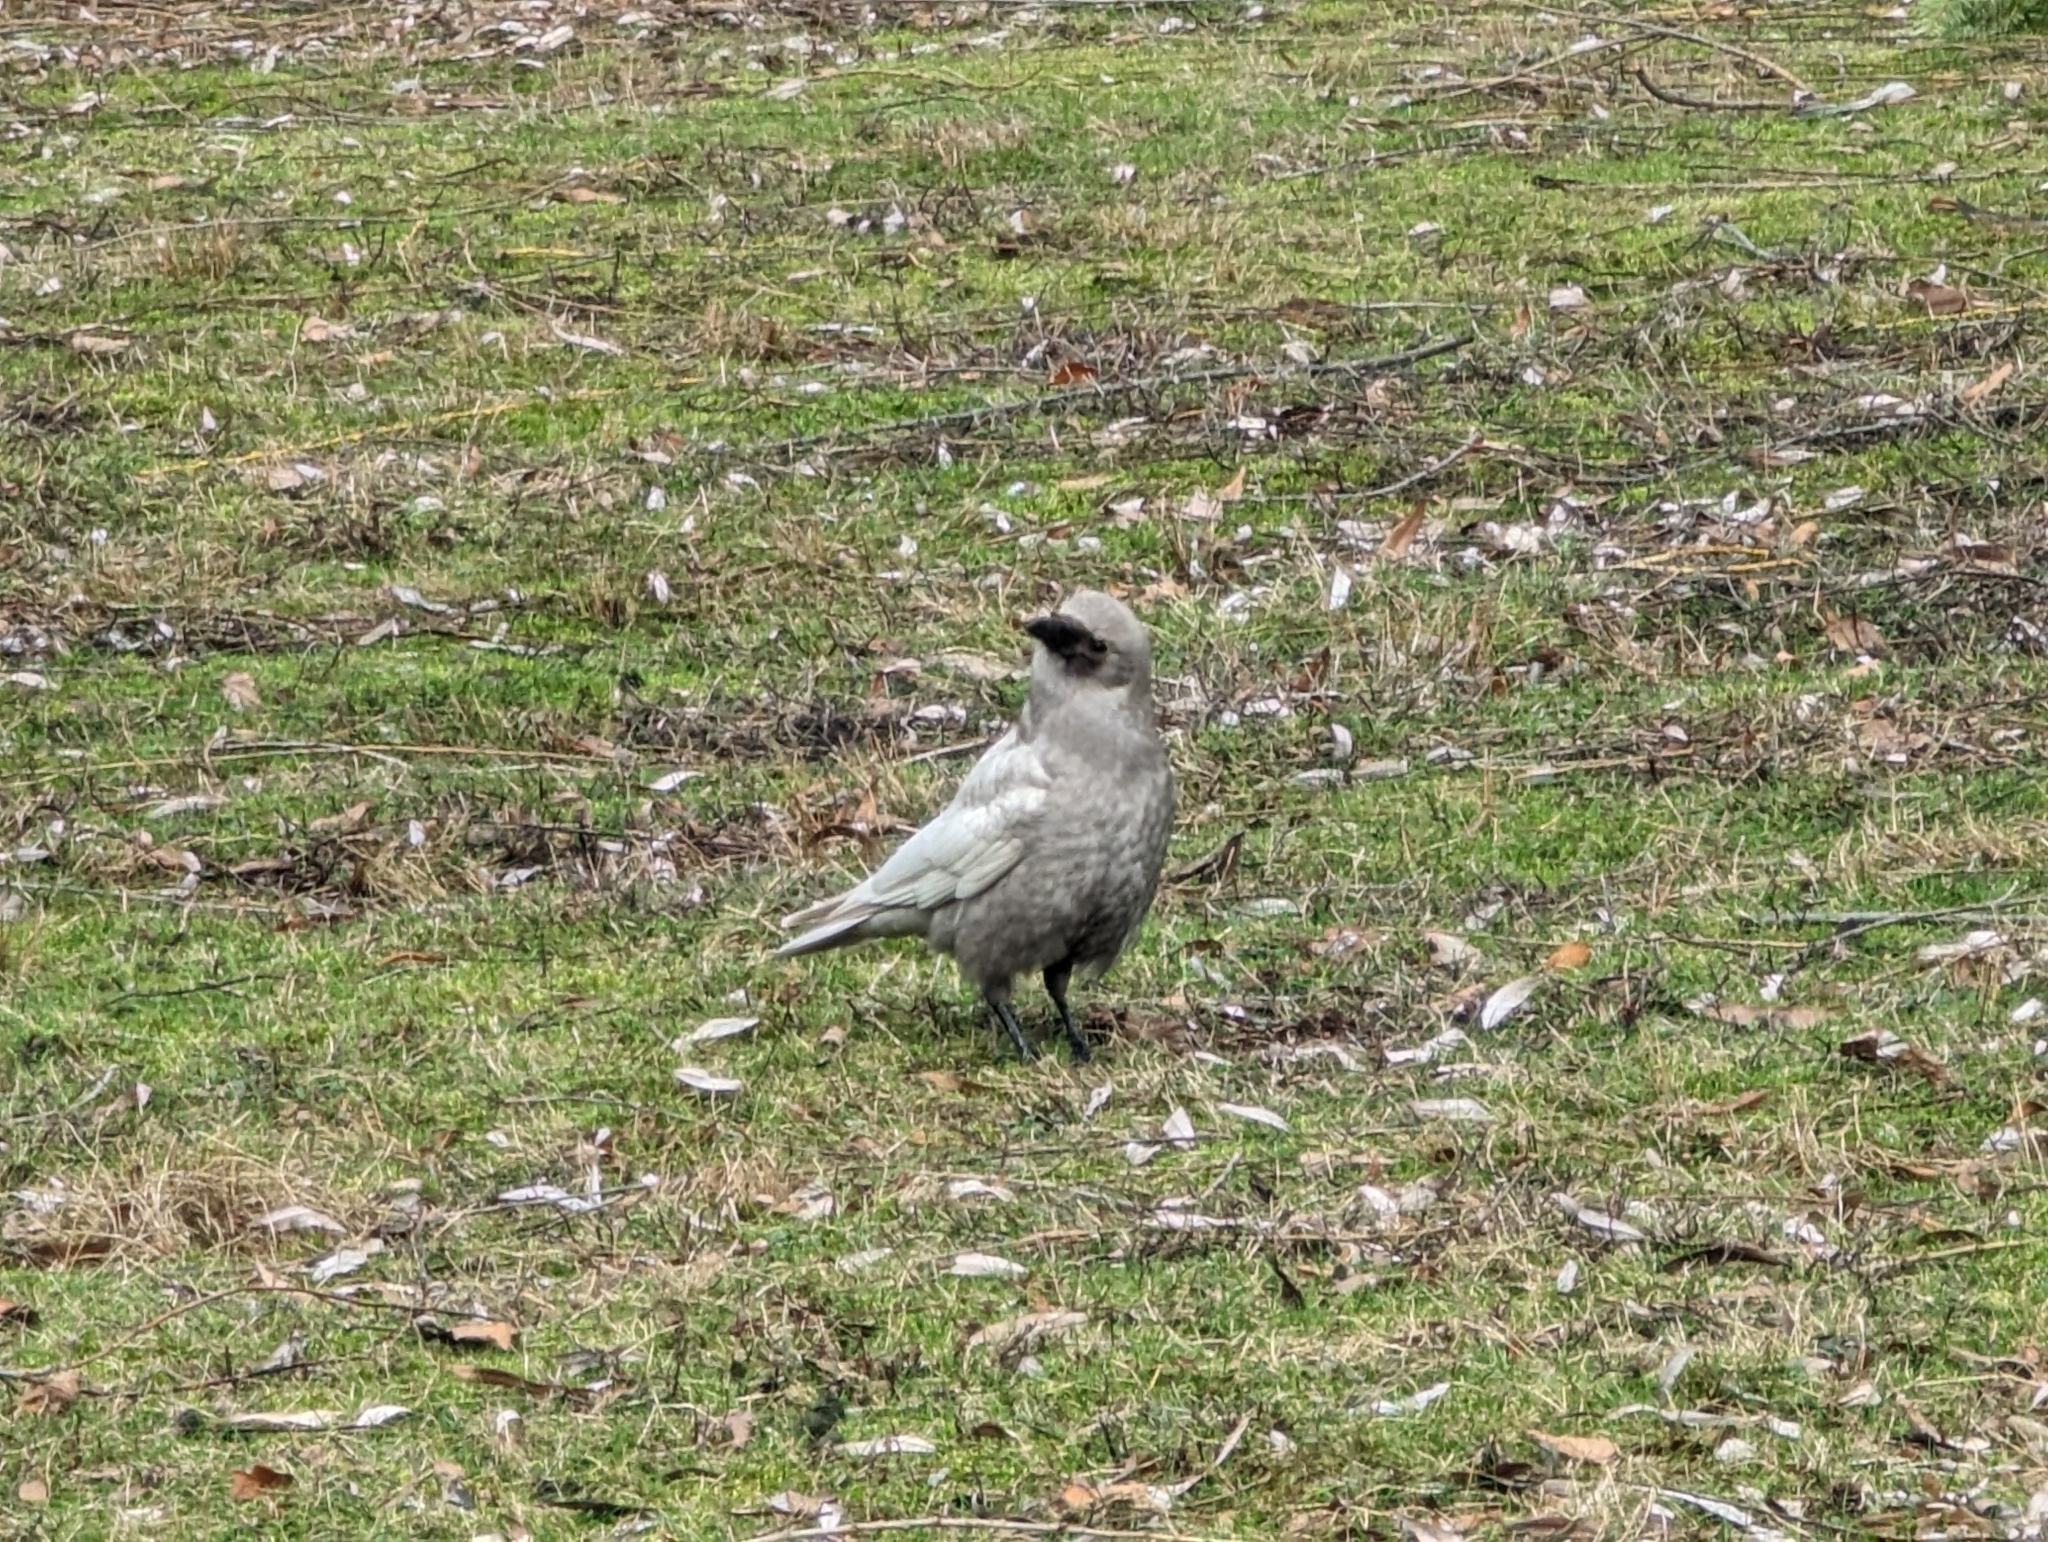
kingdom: Animalia
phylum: Chordata
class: Aves
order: Passeriformes
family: Corvidae
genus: Corvus
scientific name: Corvus brachyrhynchos
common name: American crow
